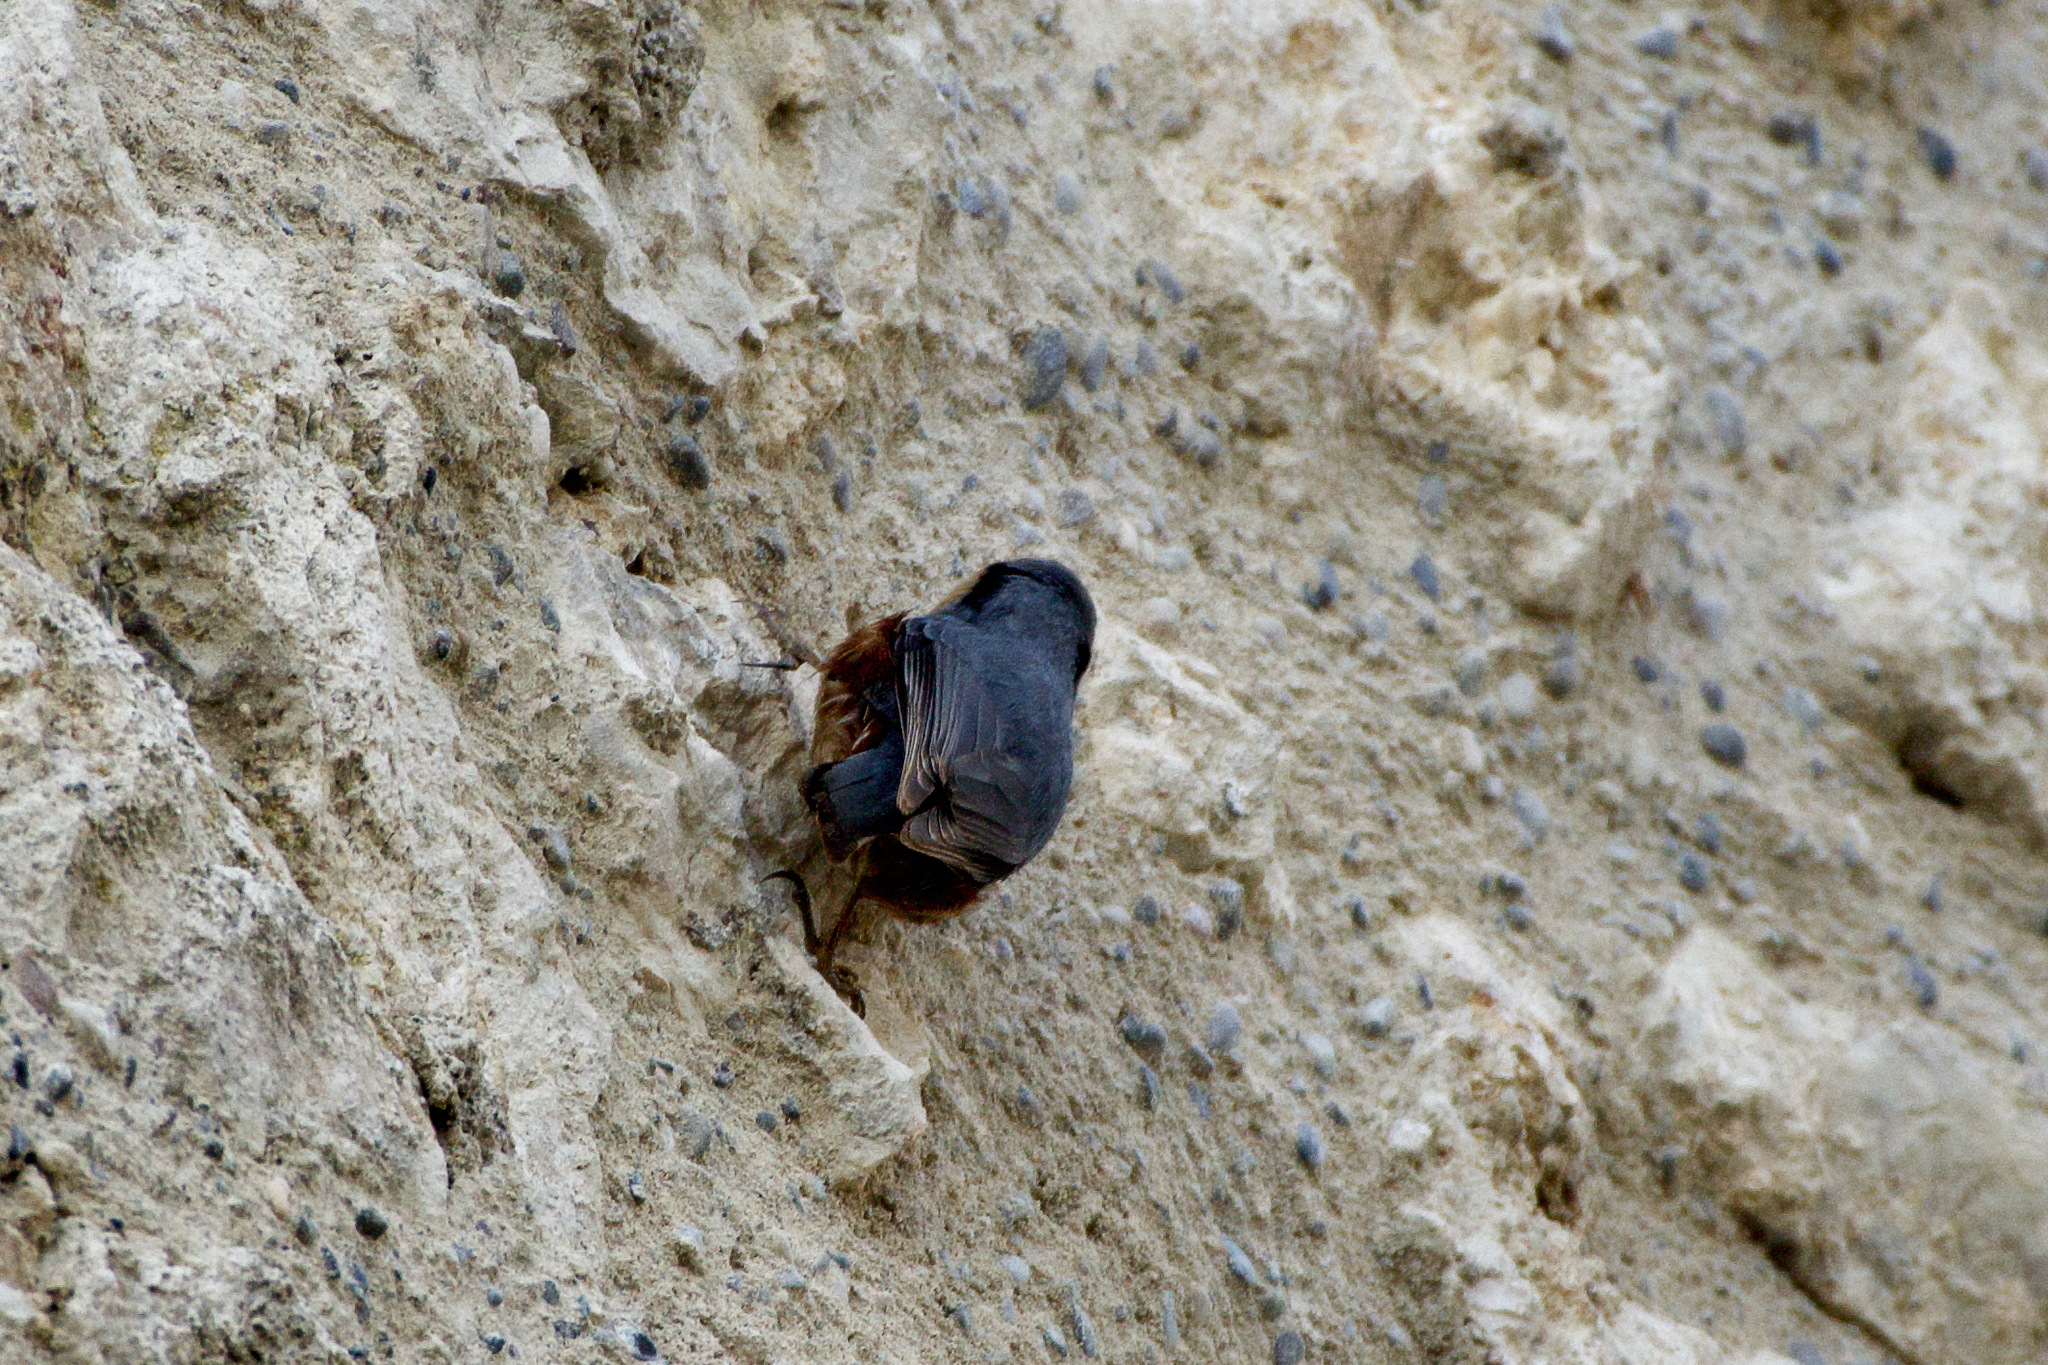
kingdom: Animalia
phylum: Chordata
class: Aves
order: Passeriformes
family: Sittidae
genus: Sitta
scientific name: Sitta europaea
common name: Eurasian nuthatch
